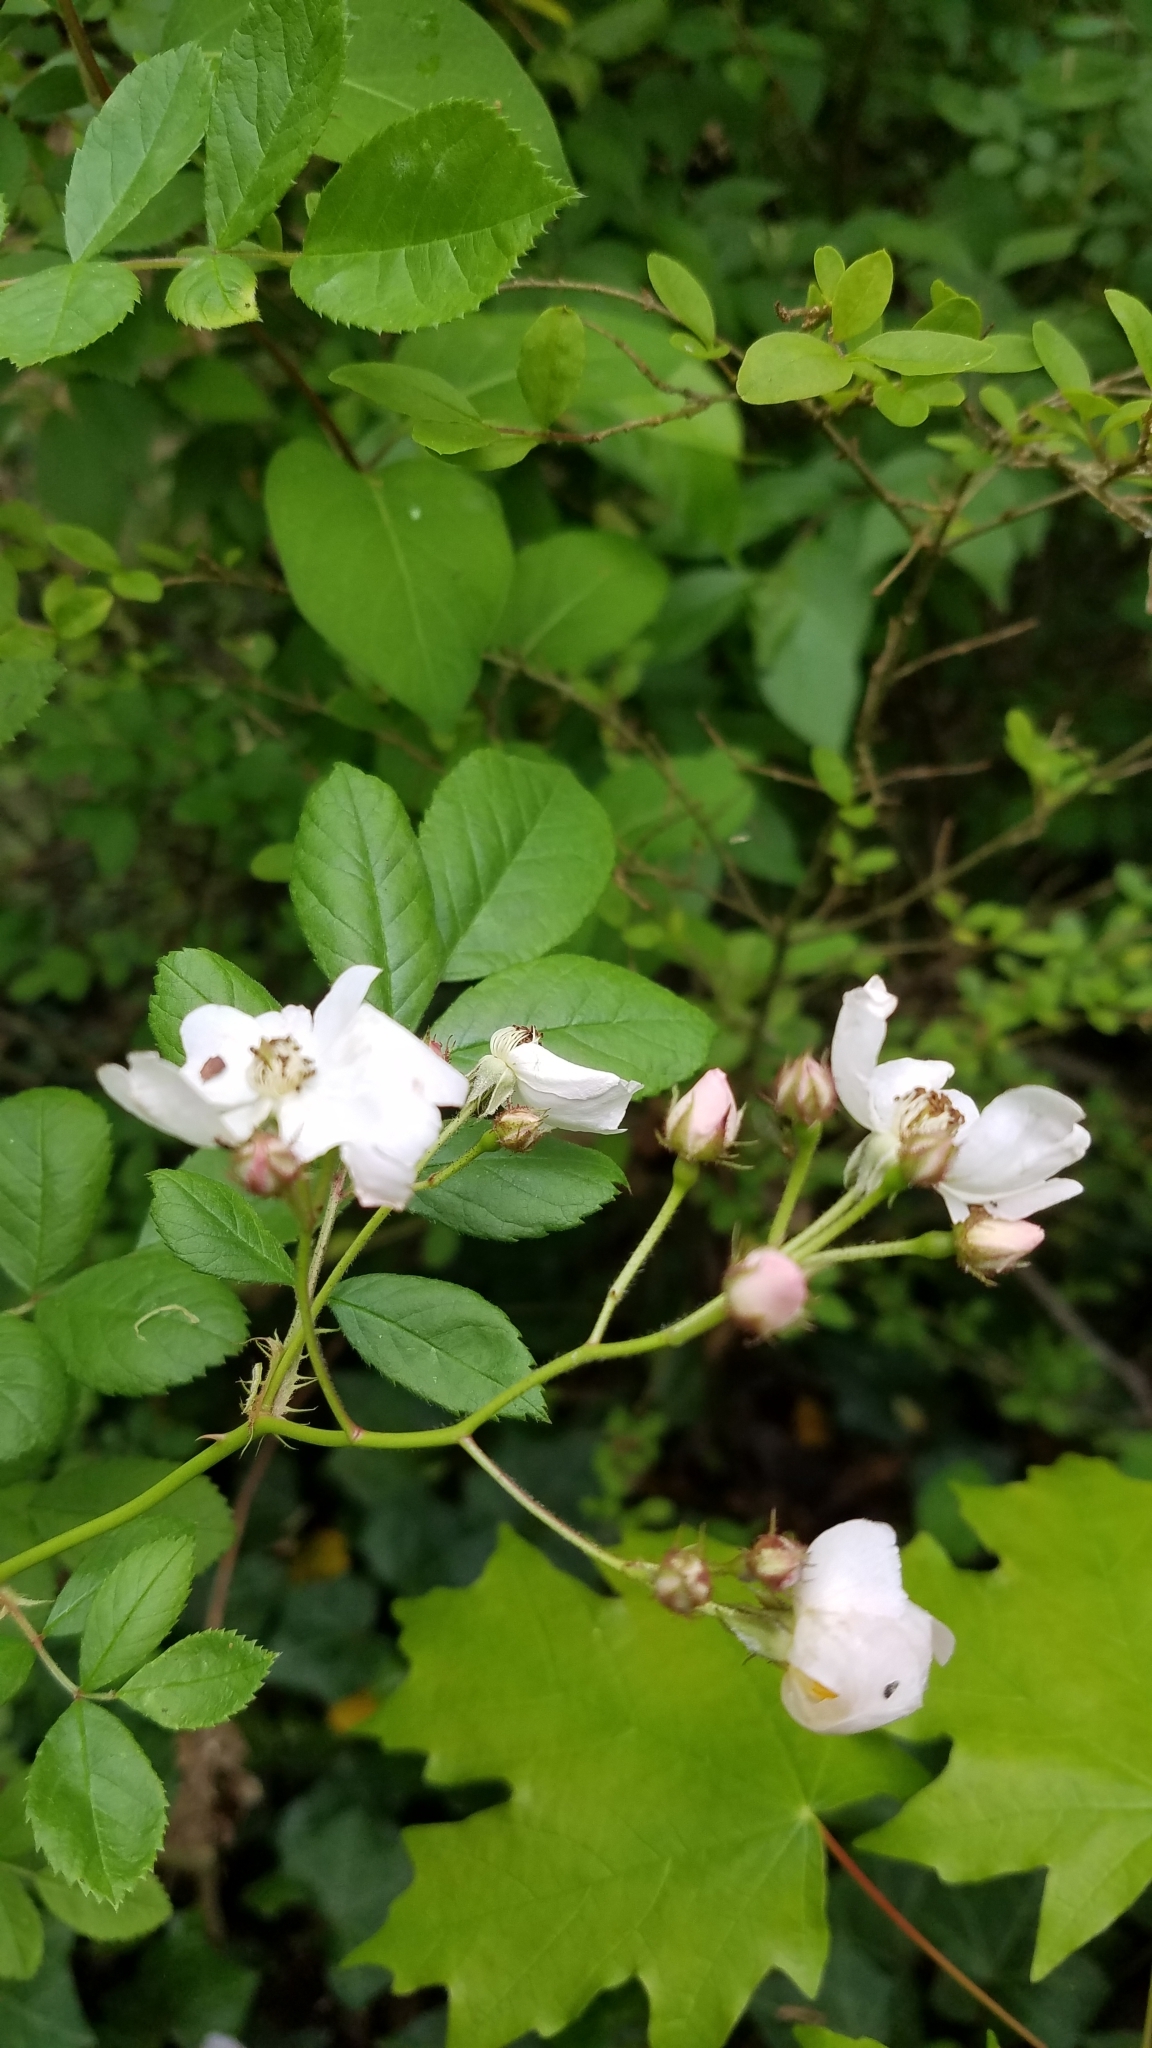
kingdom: Plantae
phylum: Tracheophyta
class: Magnoliopsida
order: Rosales
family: Rosaceae
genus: Rosa
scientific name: Rosa multiflora
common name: Multiflora rose
